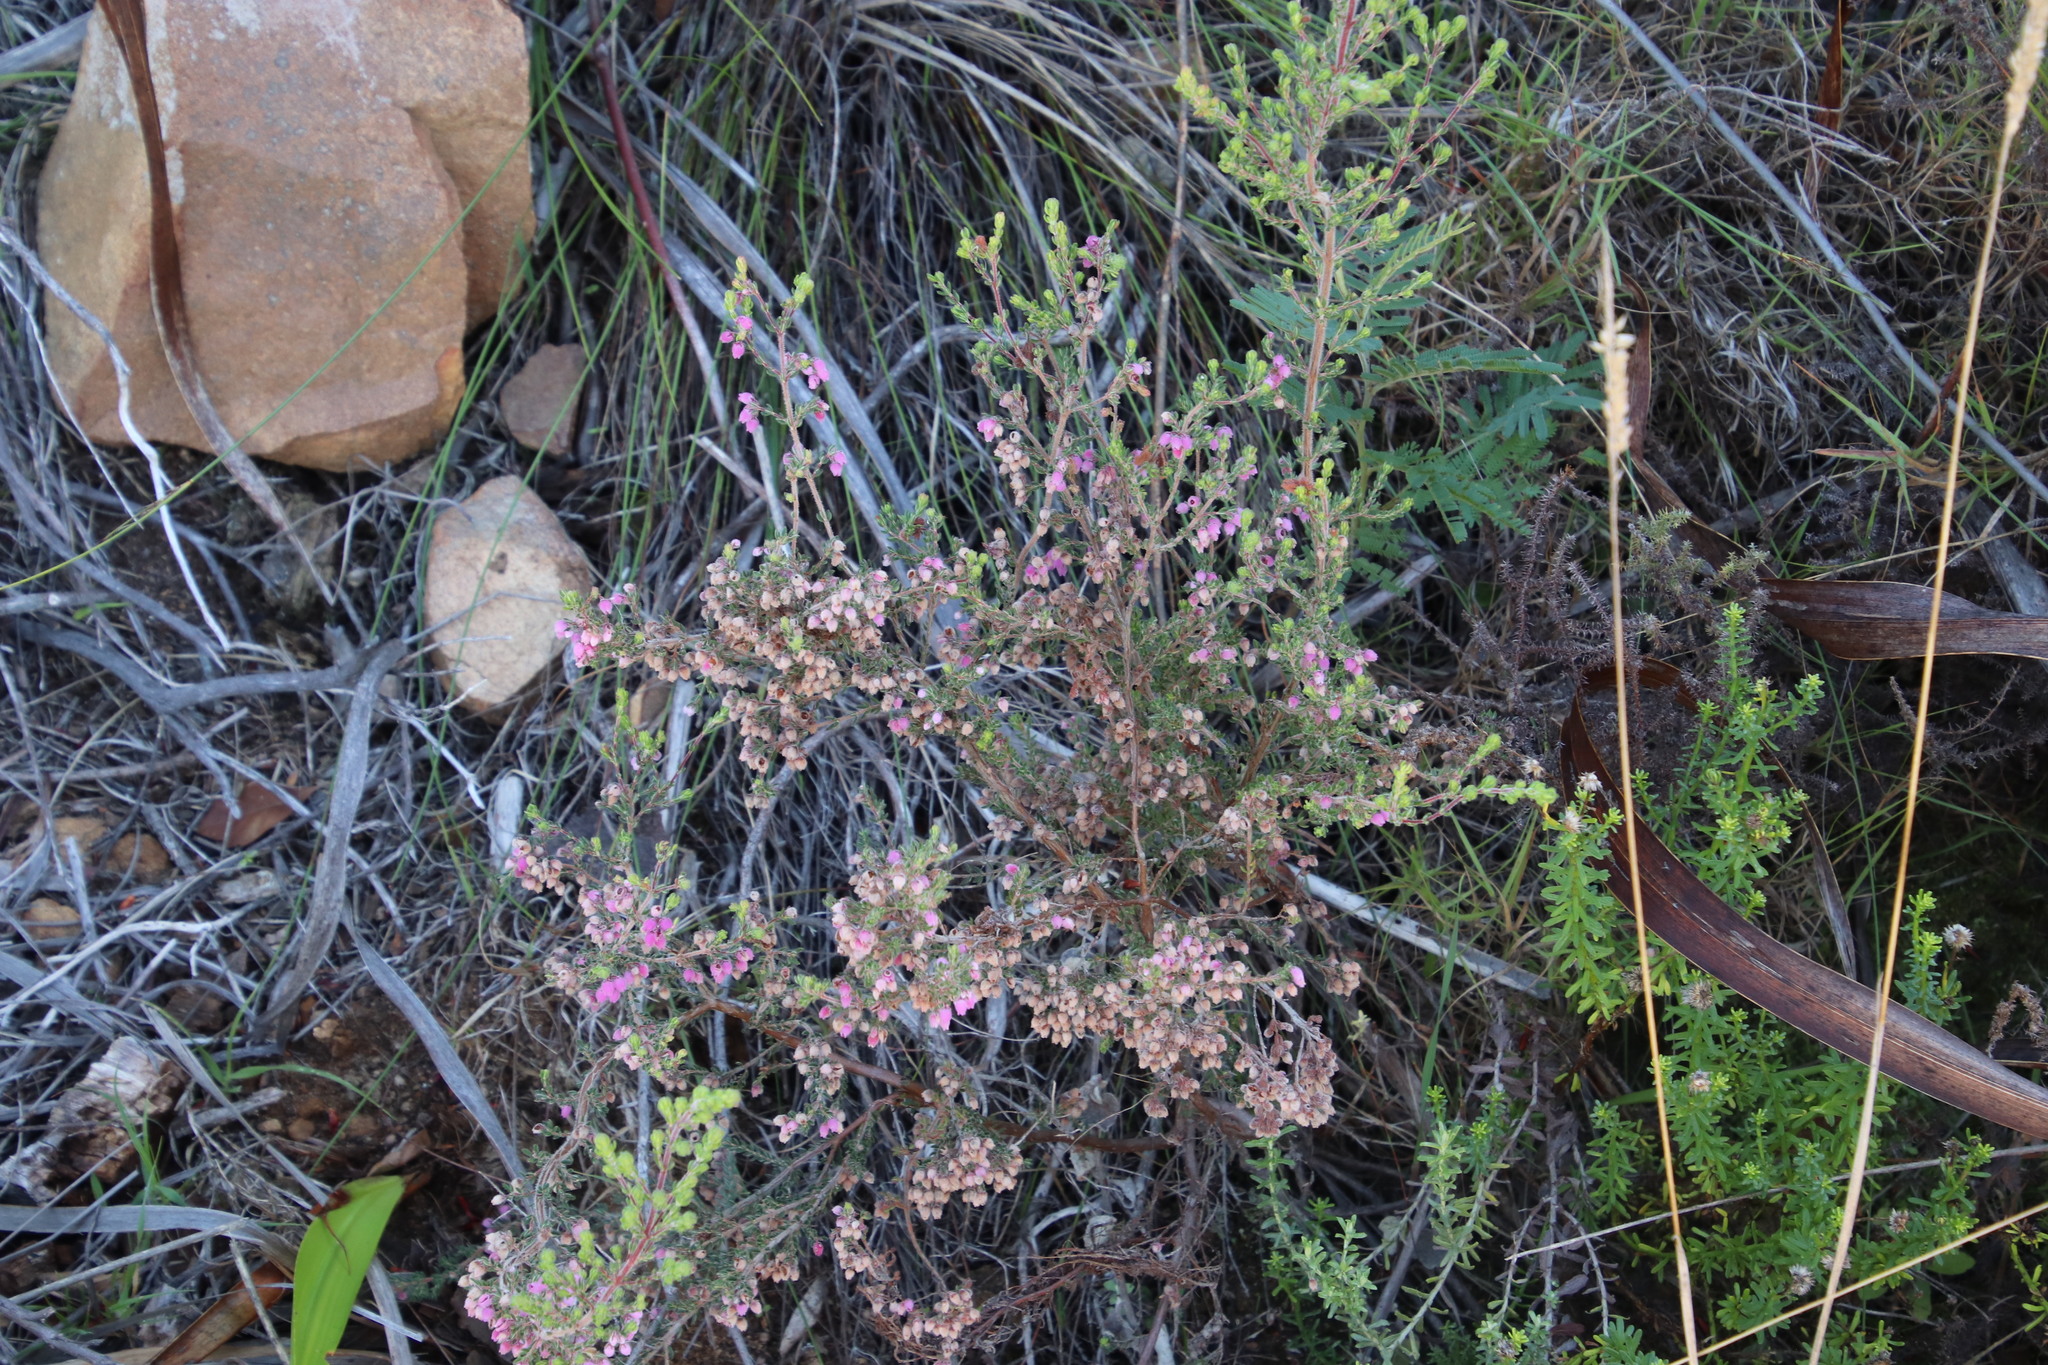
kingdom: Plantae
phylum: Tracheophyta
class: Magnoliopsida
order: Ericales
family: Ericaceae
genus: Erica
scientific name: Erica hirtiflora
